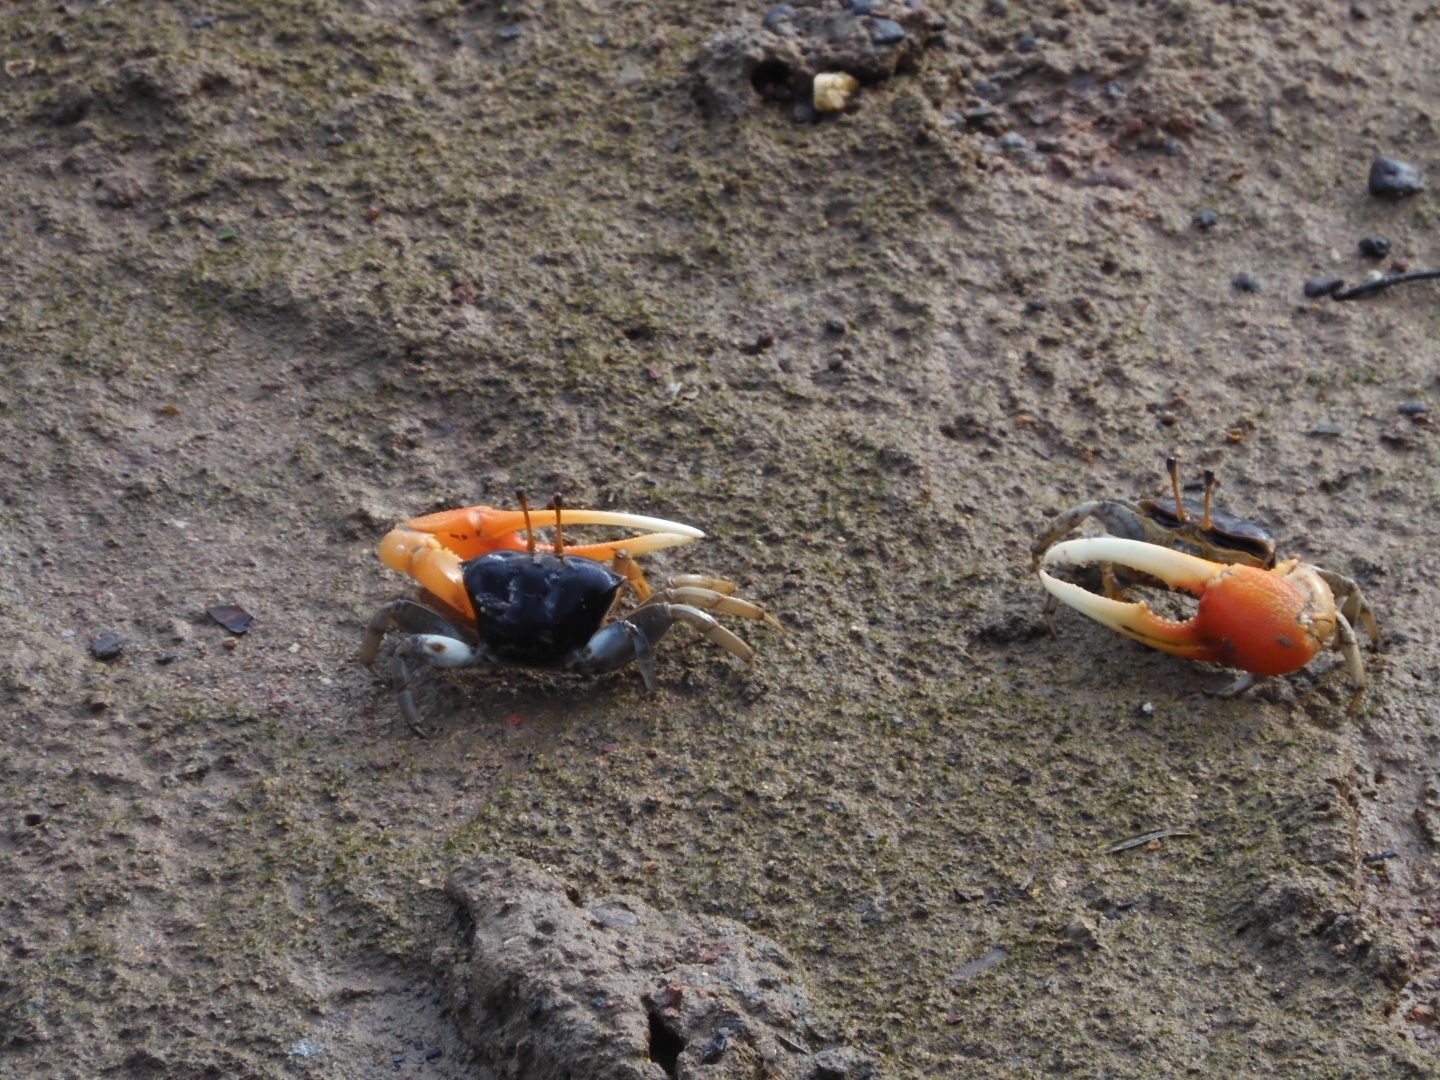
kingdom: Animalia
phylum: Arthropoda
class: Malacostraca
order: Decapoda
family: Ocypodidae
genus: Tubuca
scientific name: Tubuca coarctata
